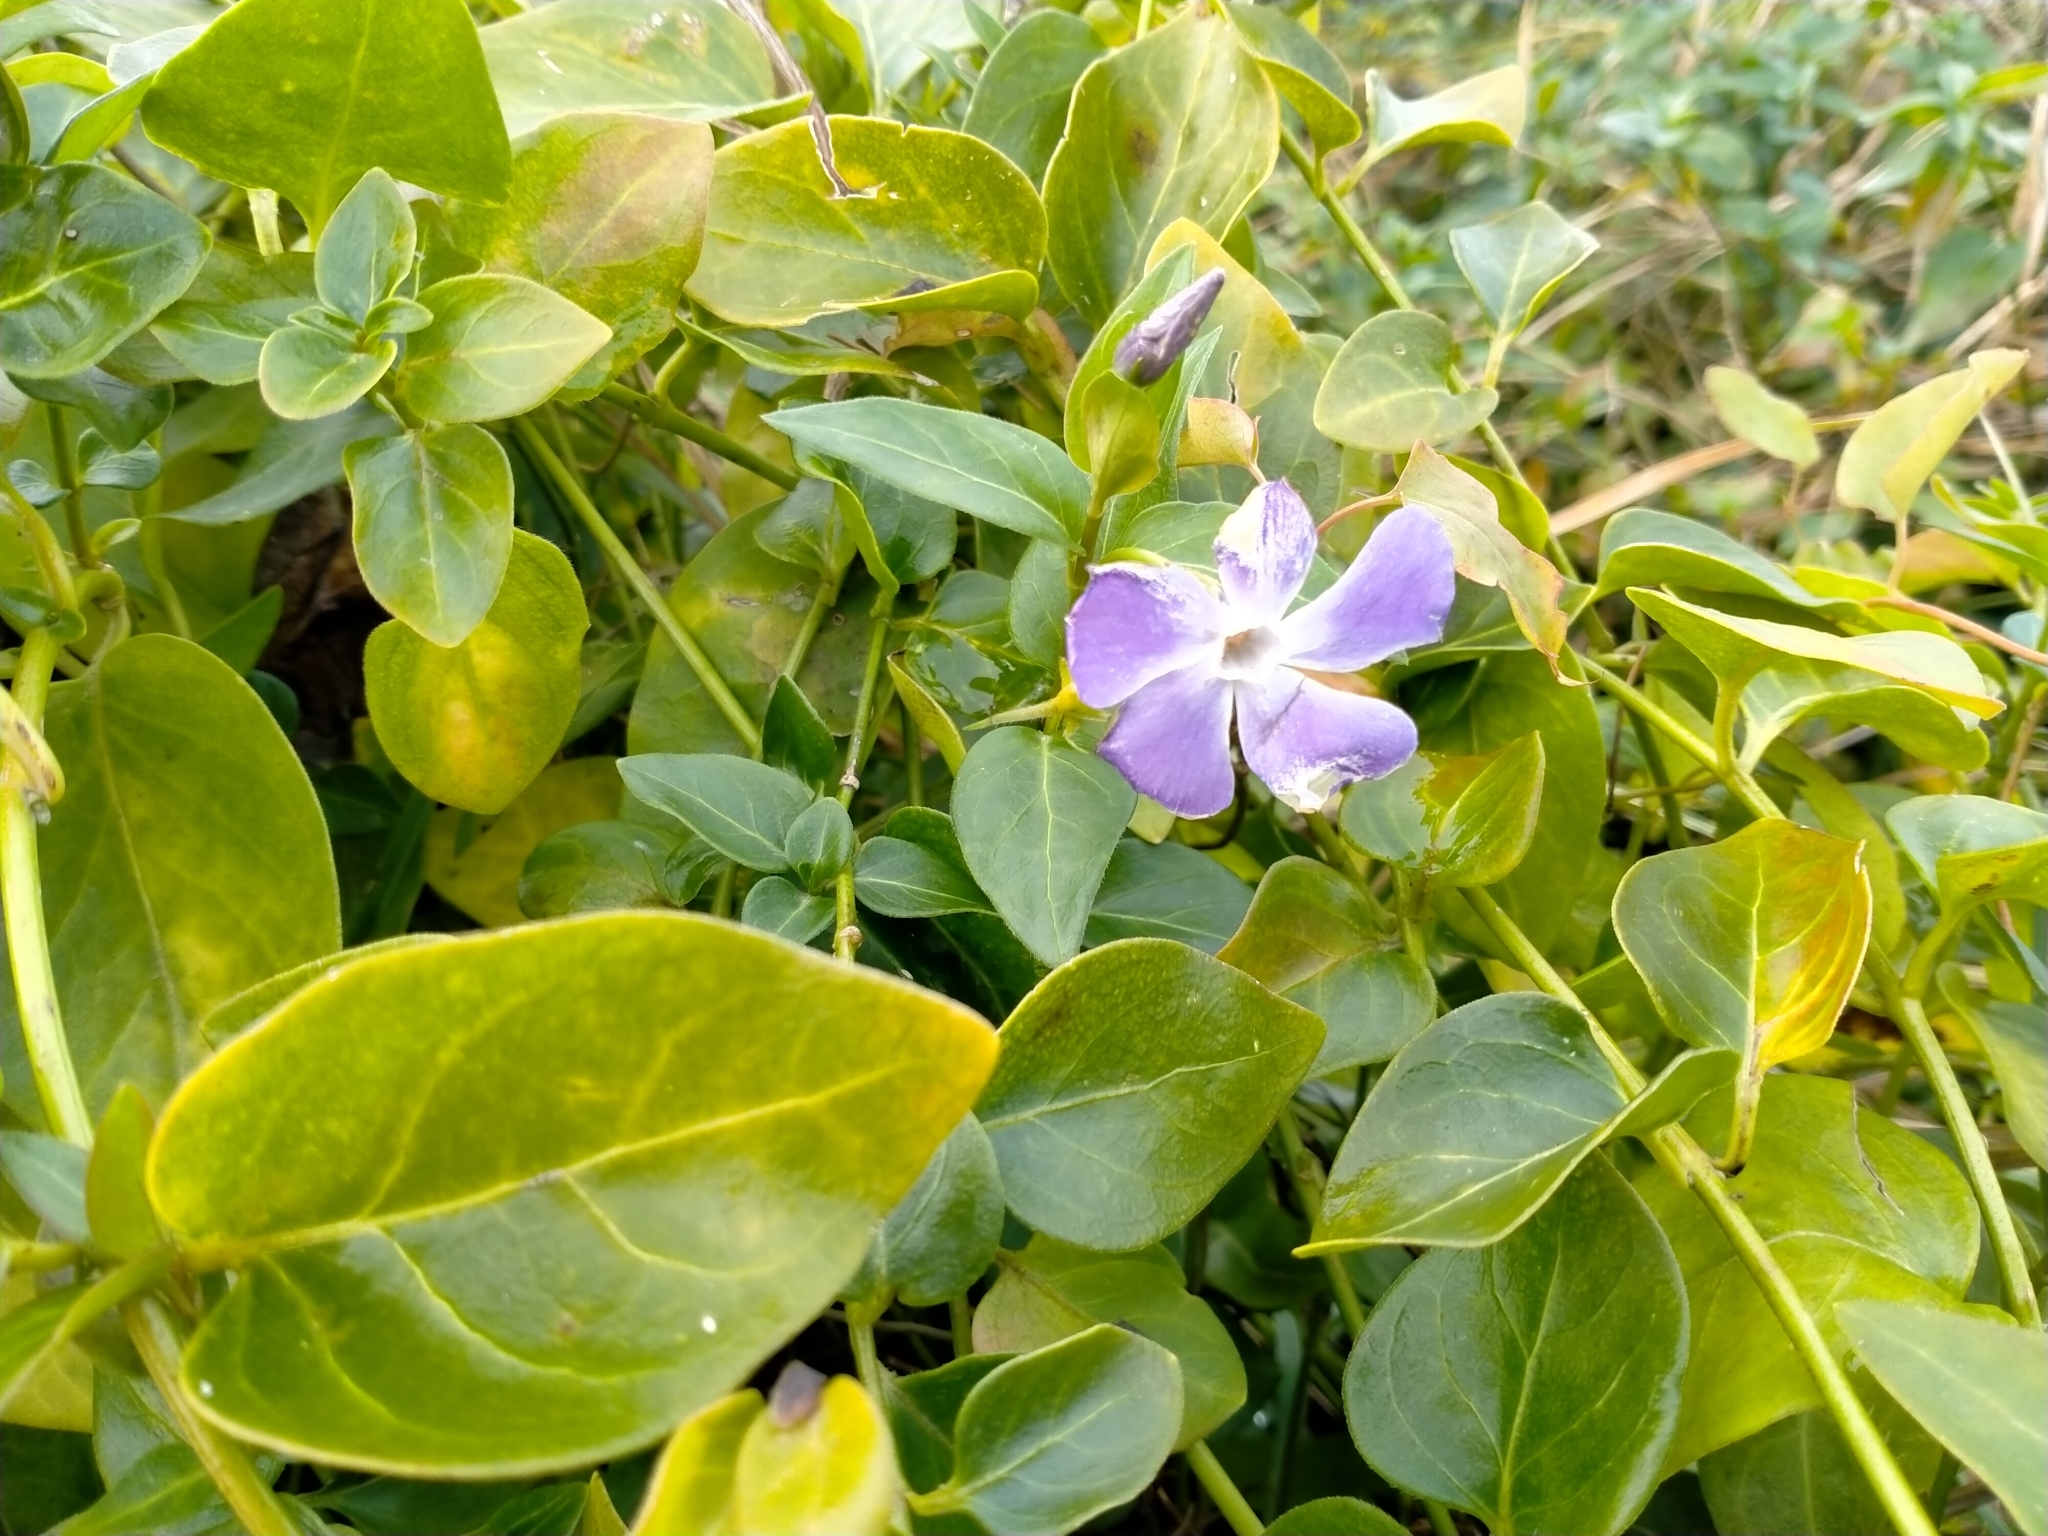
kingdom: Plantae
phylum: Tracheophyta
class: Magnoliopsida
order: Gentianales
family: Apocynaceae
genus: Vinca
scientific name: Vinca major
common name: Greater periwinkle
